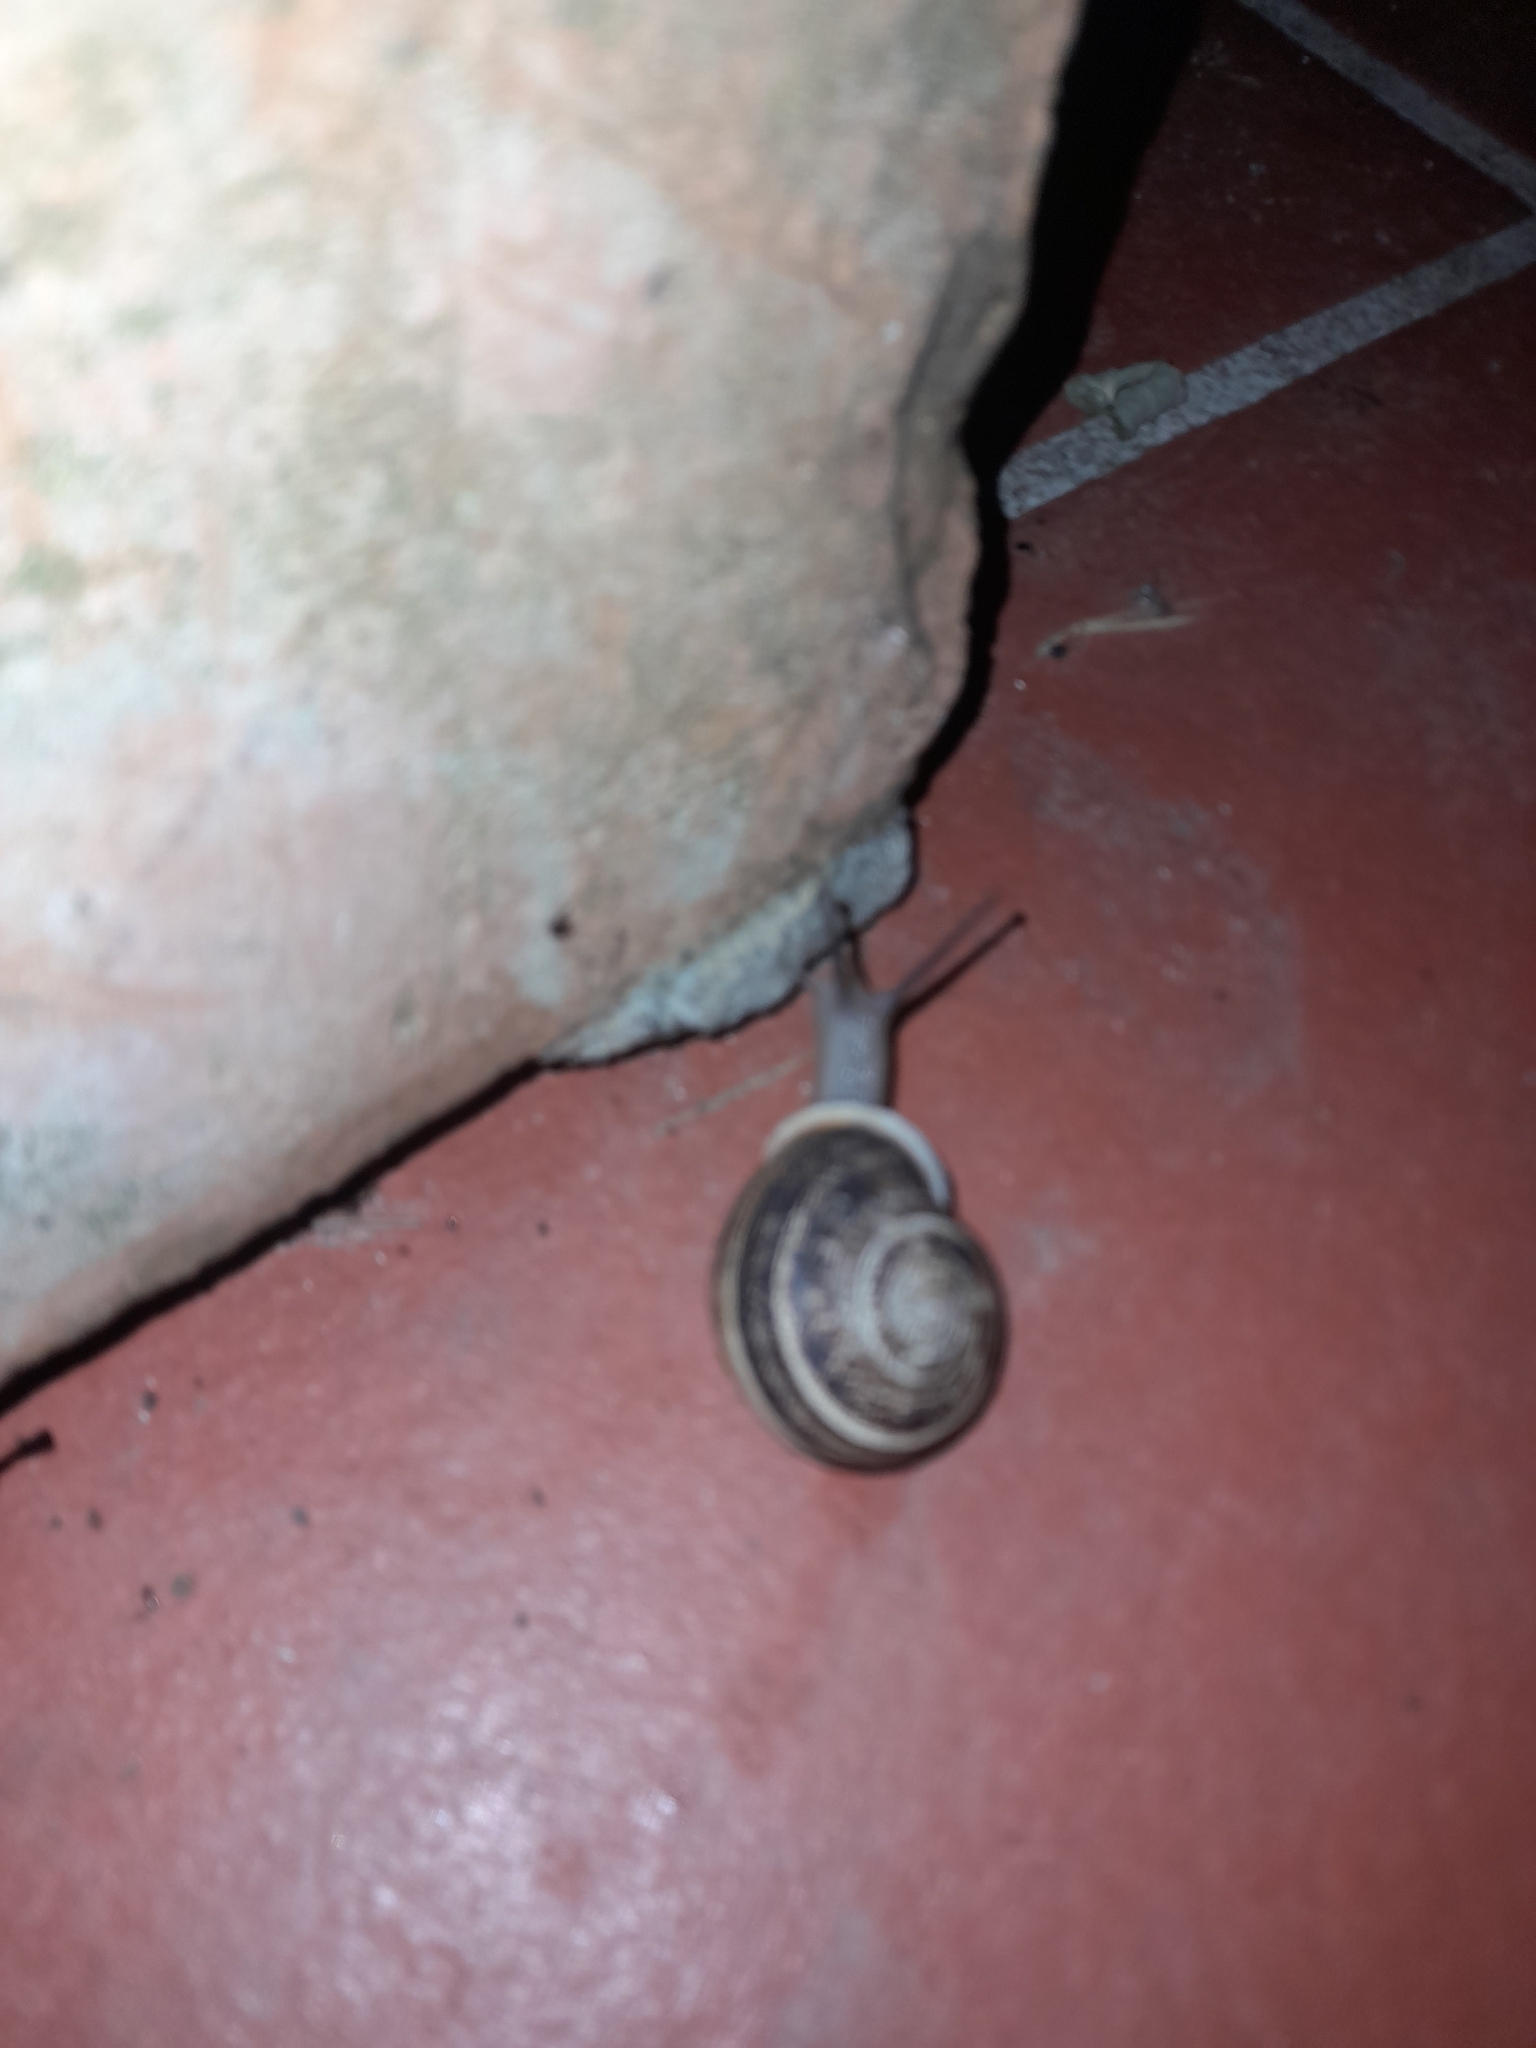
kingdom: Animalia
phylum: Mollusca
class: Gastropoda
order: Stylommatophora
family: Helicidae
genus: Eobania
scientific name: Eobania vermiculata
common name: Chocolateband snail
